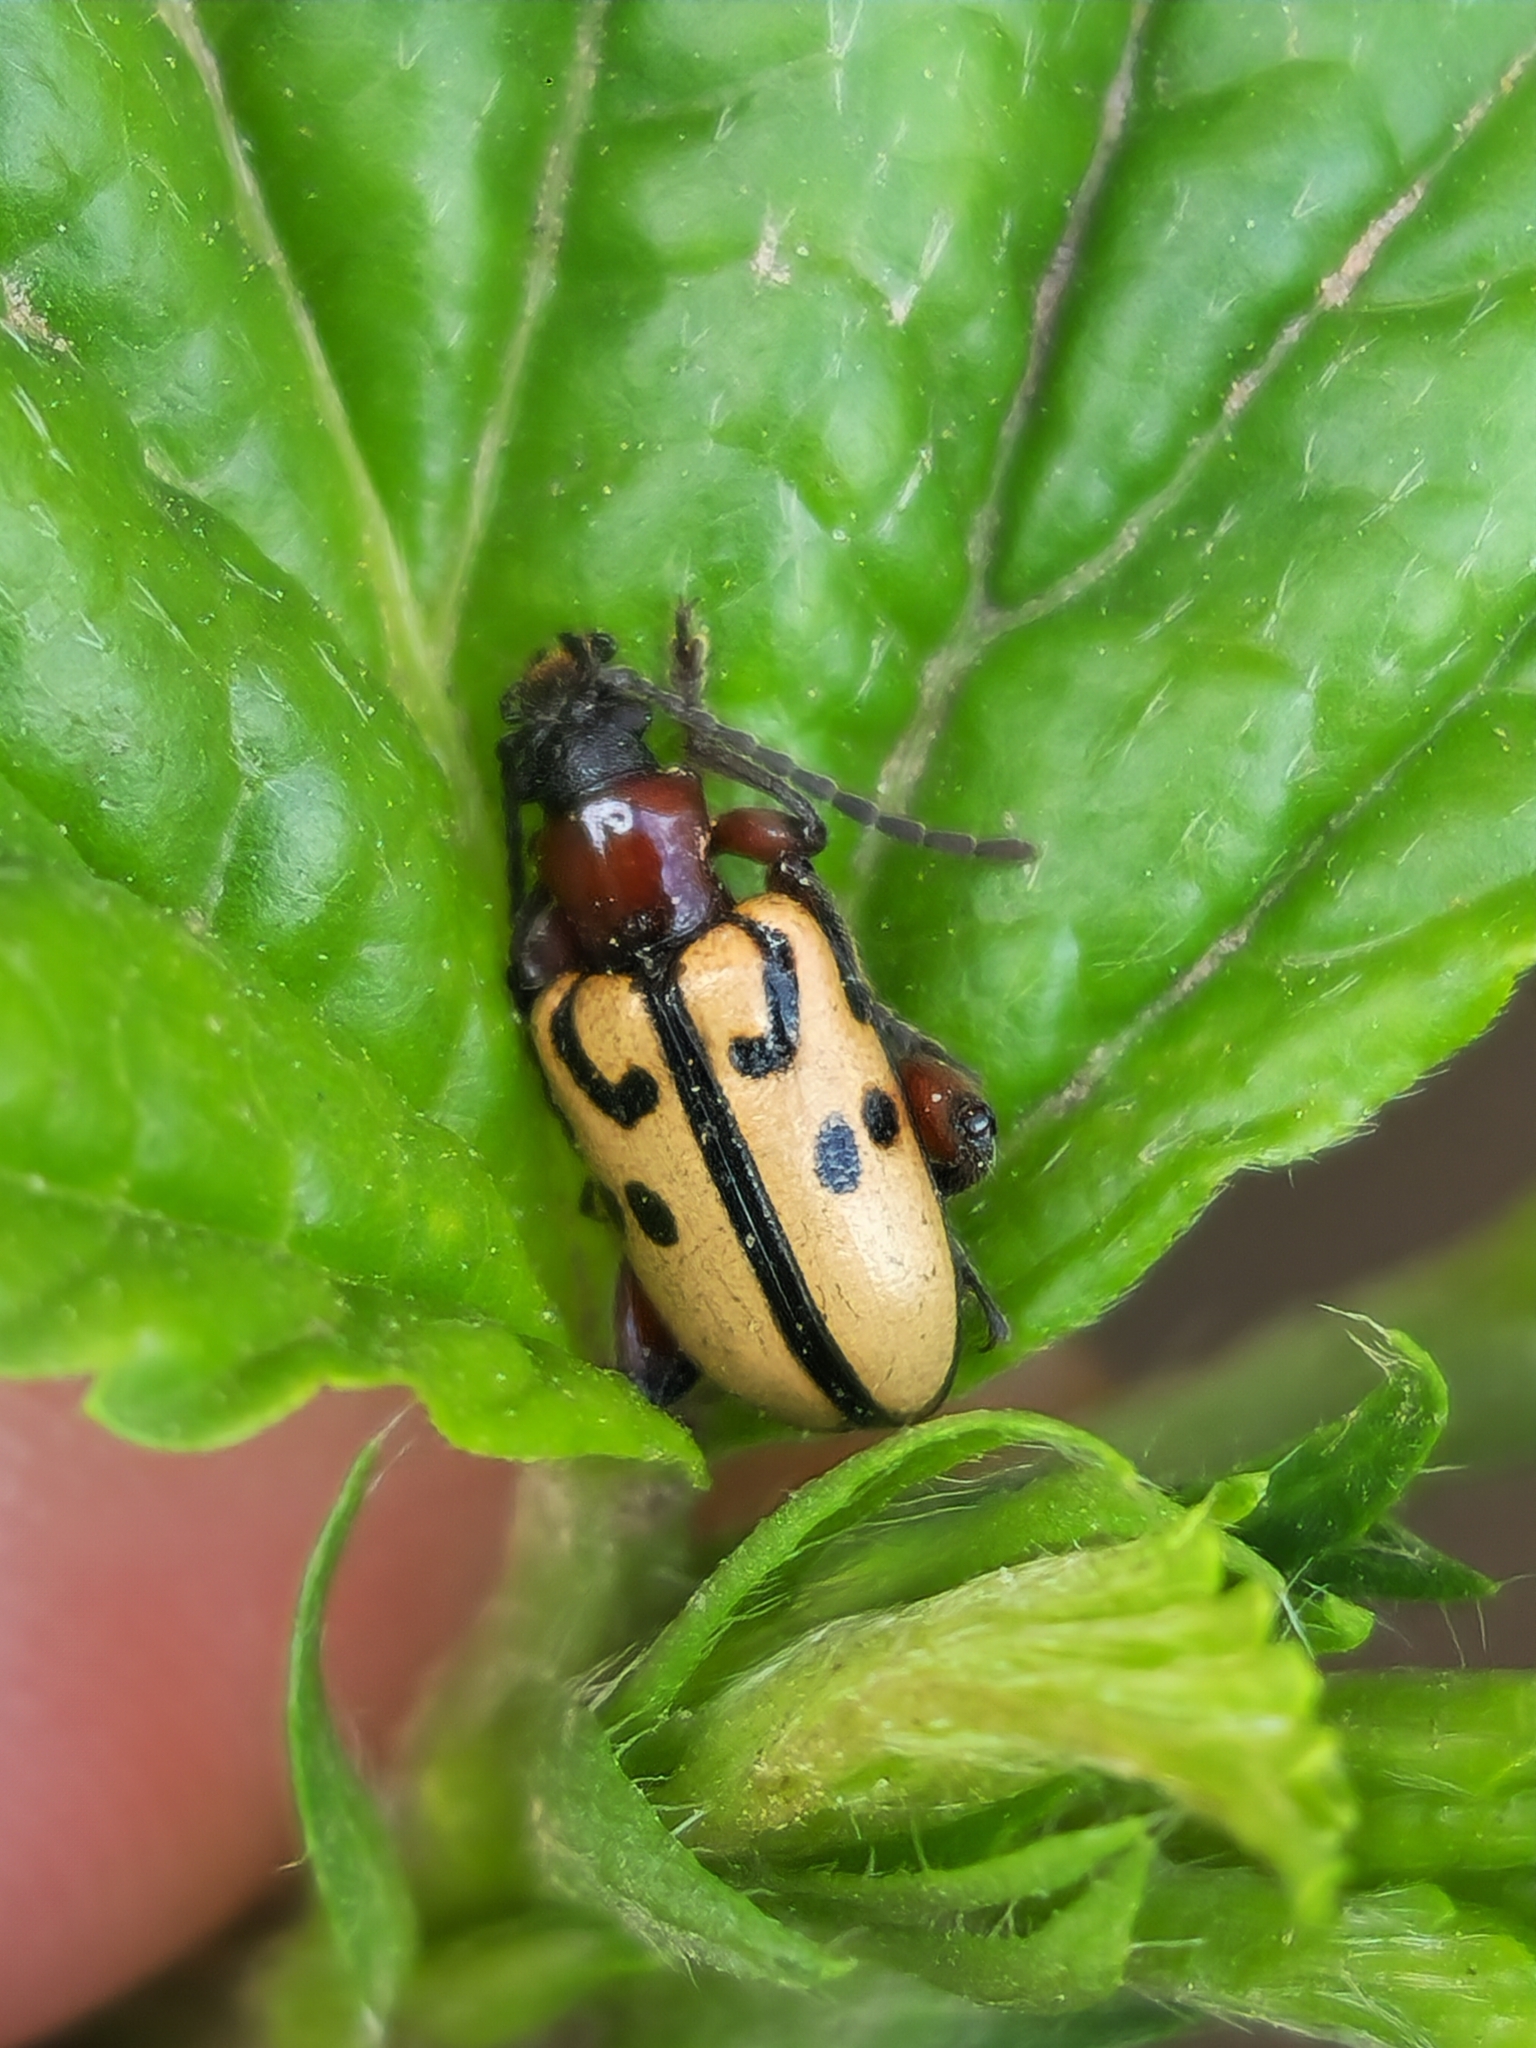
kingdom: Animalia
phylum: Arthropoda
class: Insecta
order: Coleoptera
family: Chrysomelidae
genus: Atalasis
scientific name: Atalasis
